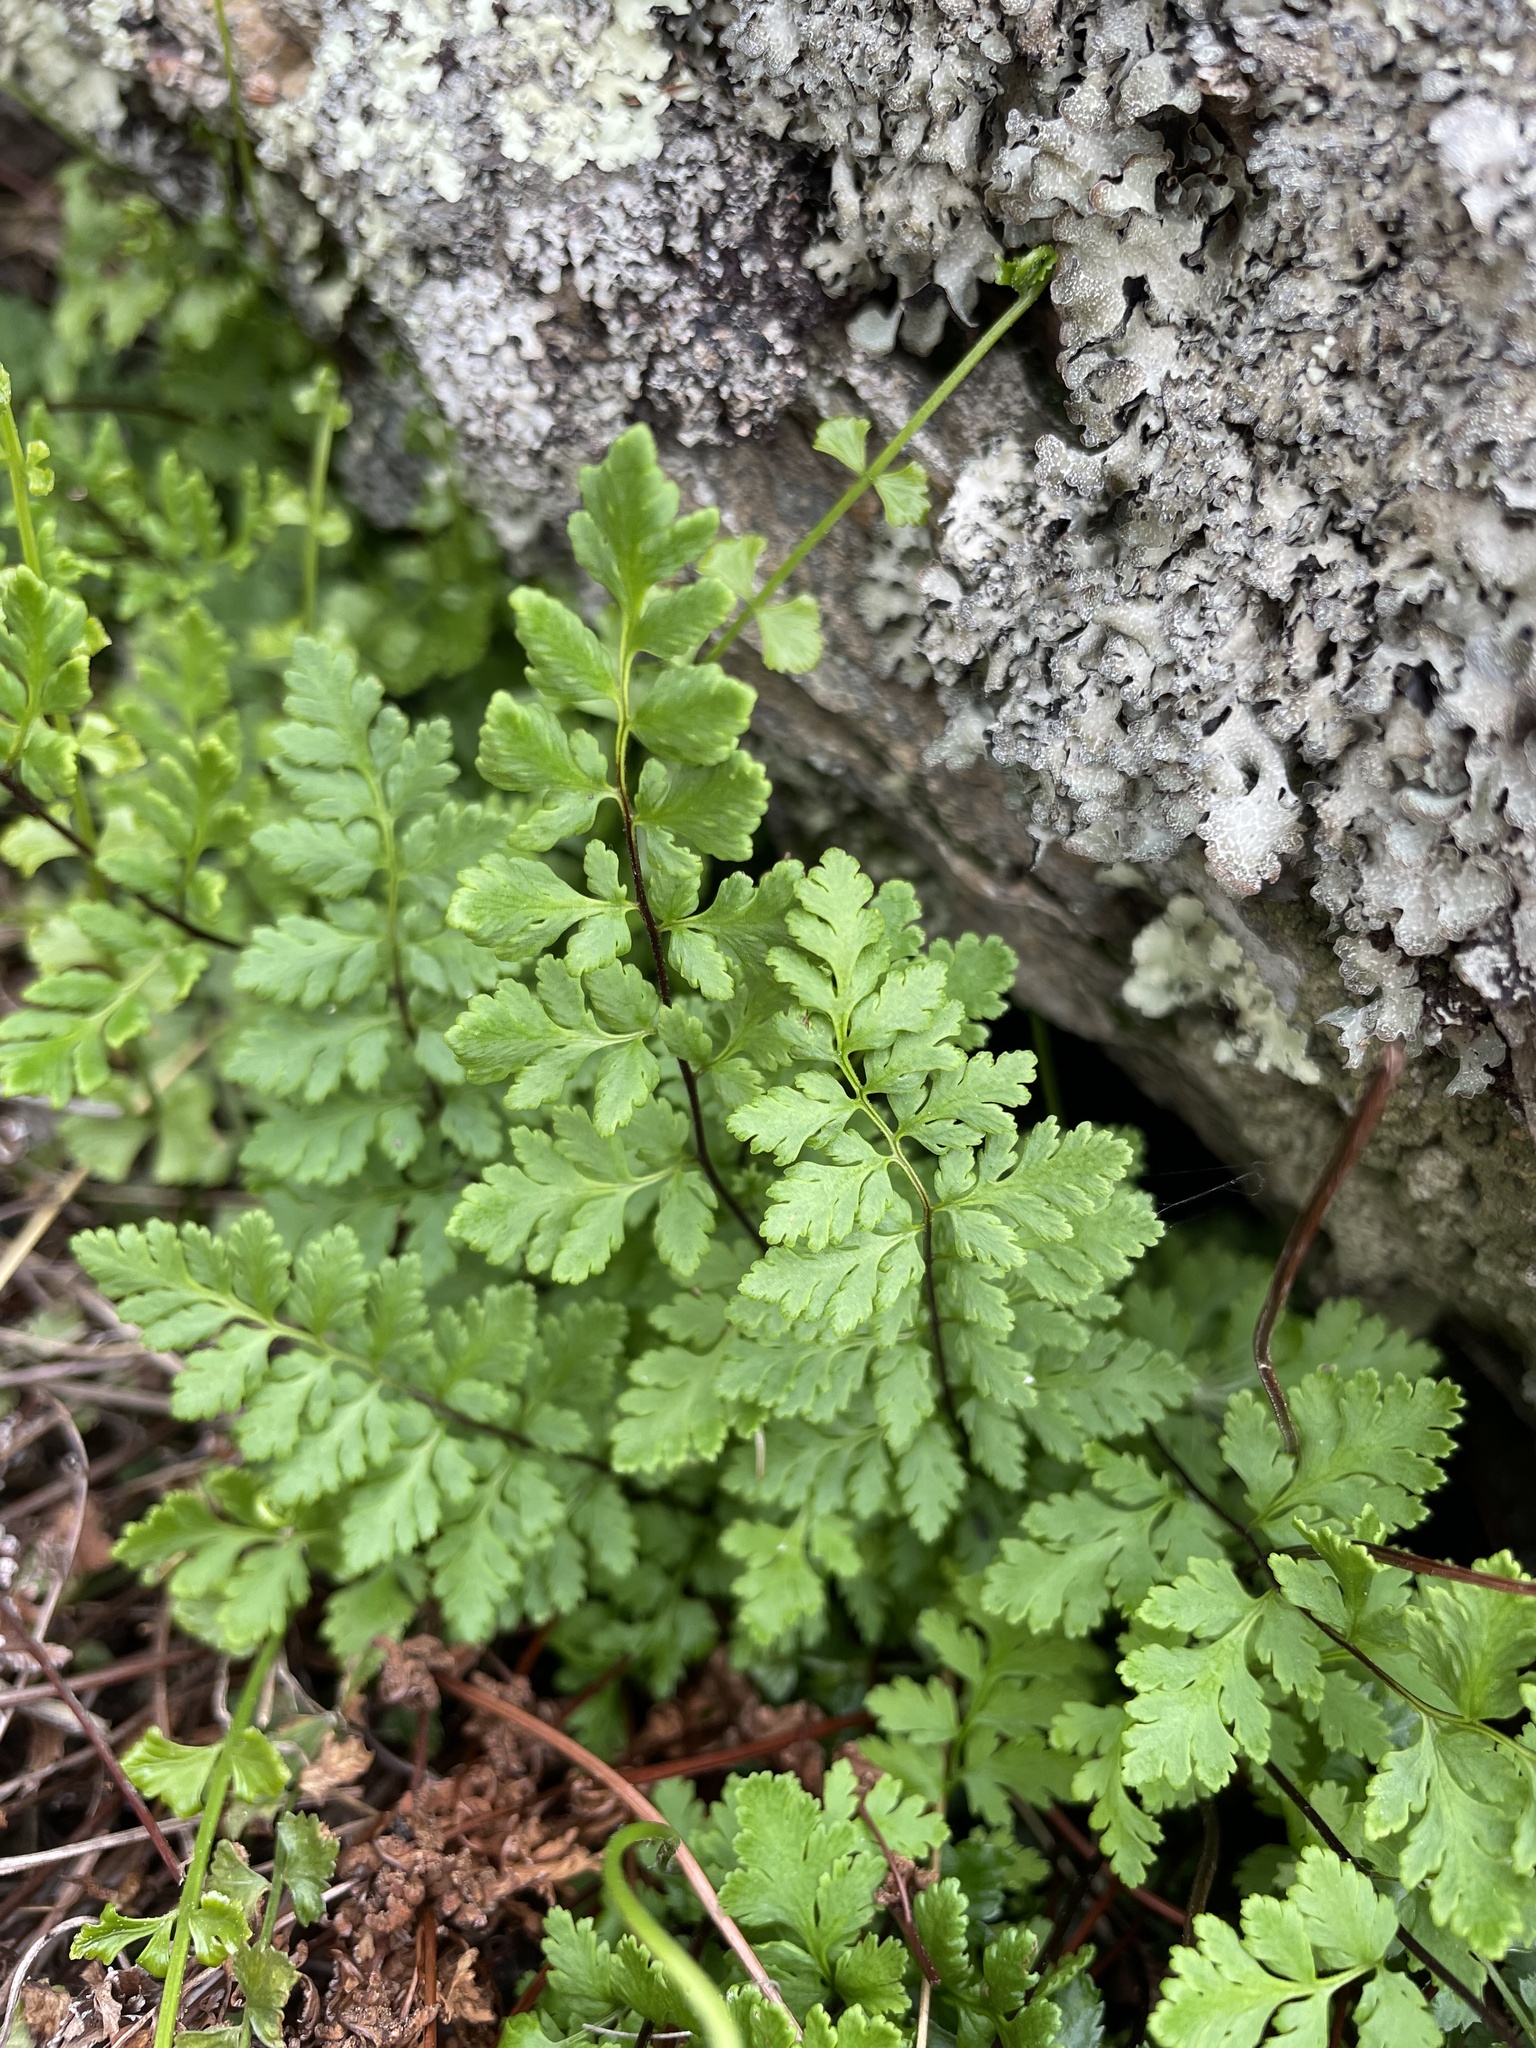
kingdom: Plantae
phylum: Tracheophyta
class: Polypodiopsida
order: Polypodiales
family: Pteridaceae
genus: Cheilanthes
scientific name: Cheilanthes sieberi
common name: Mulga fern
